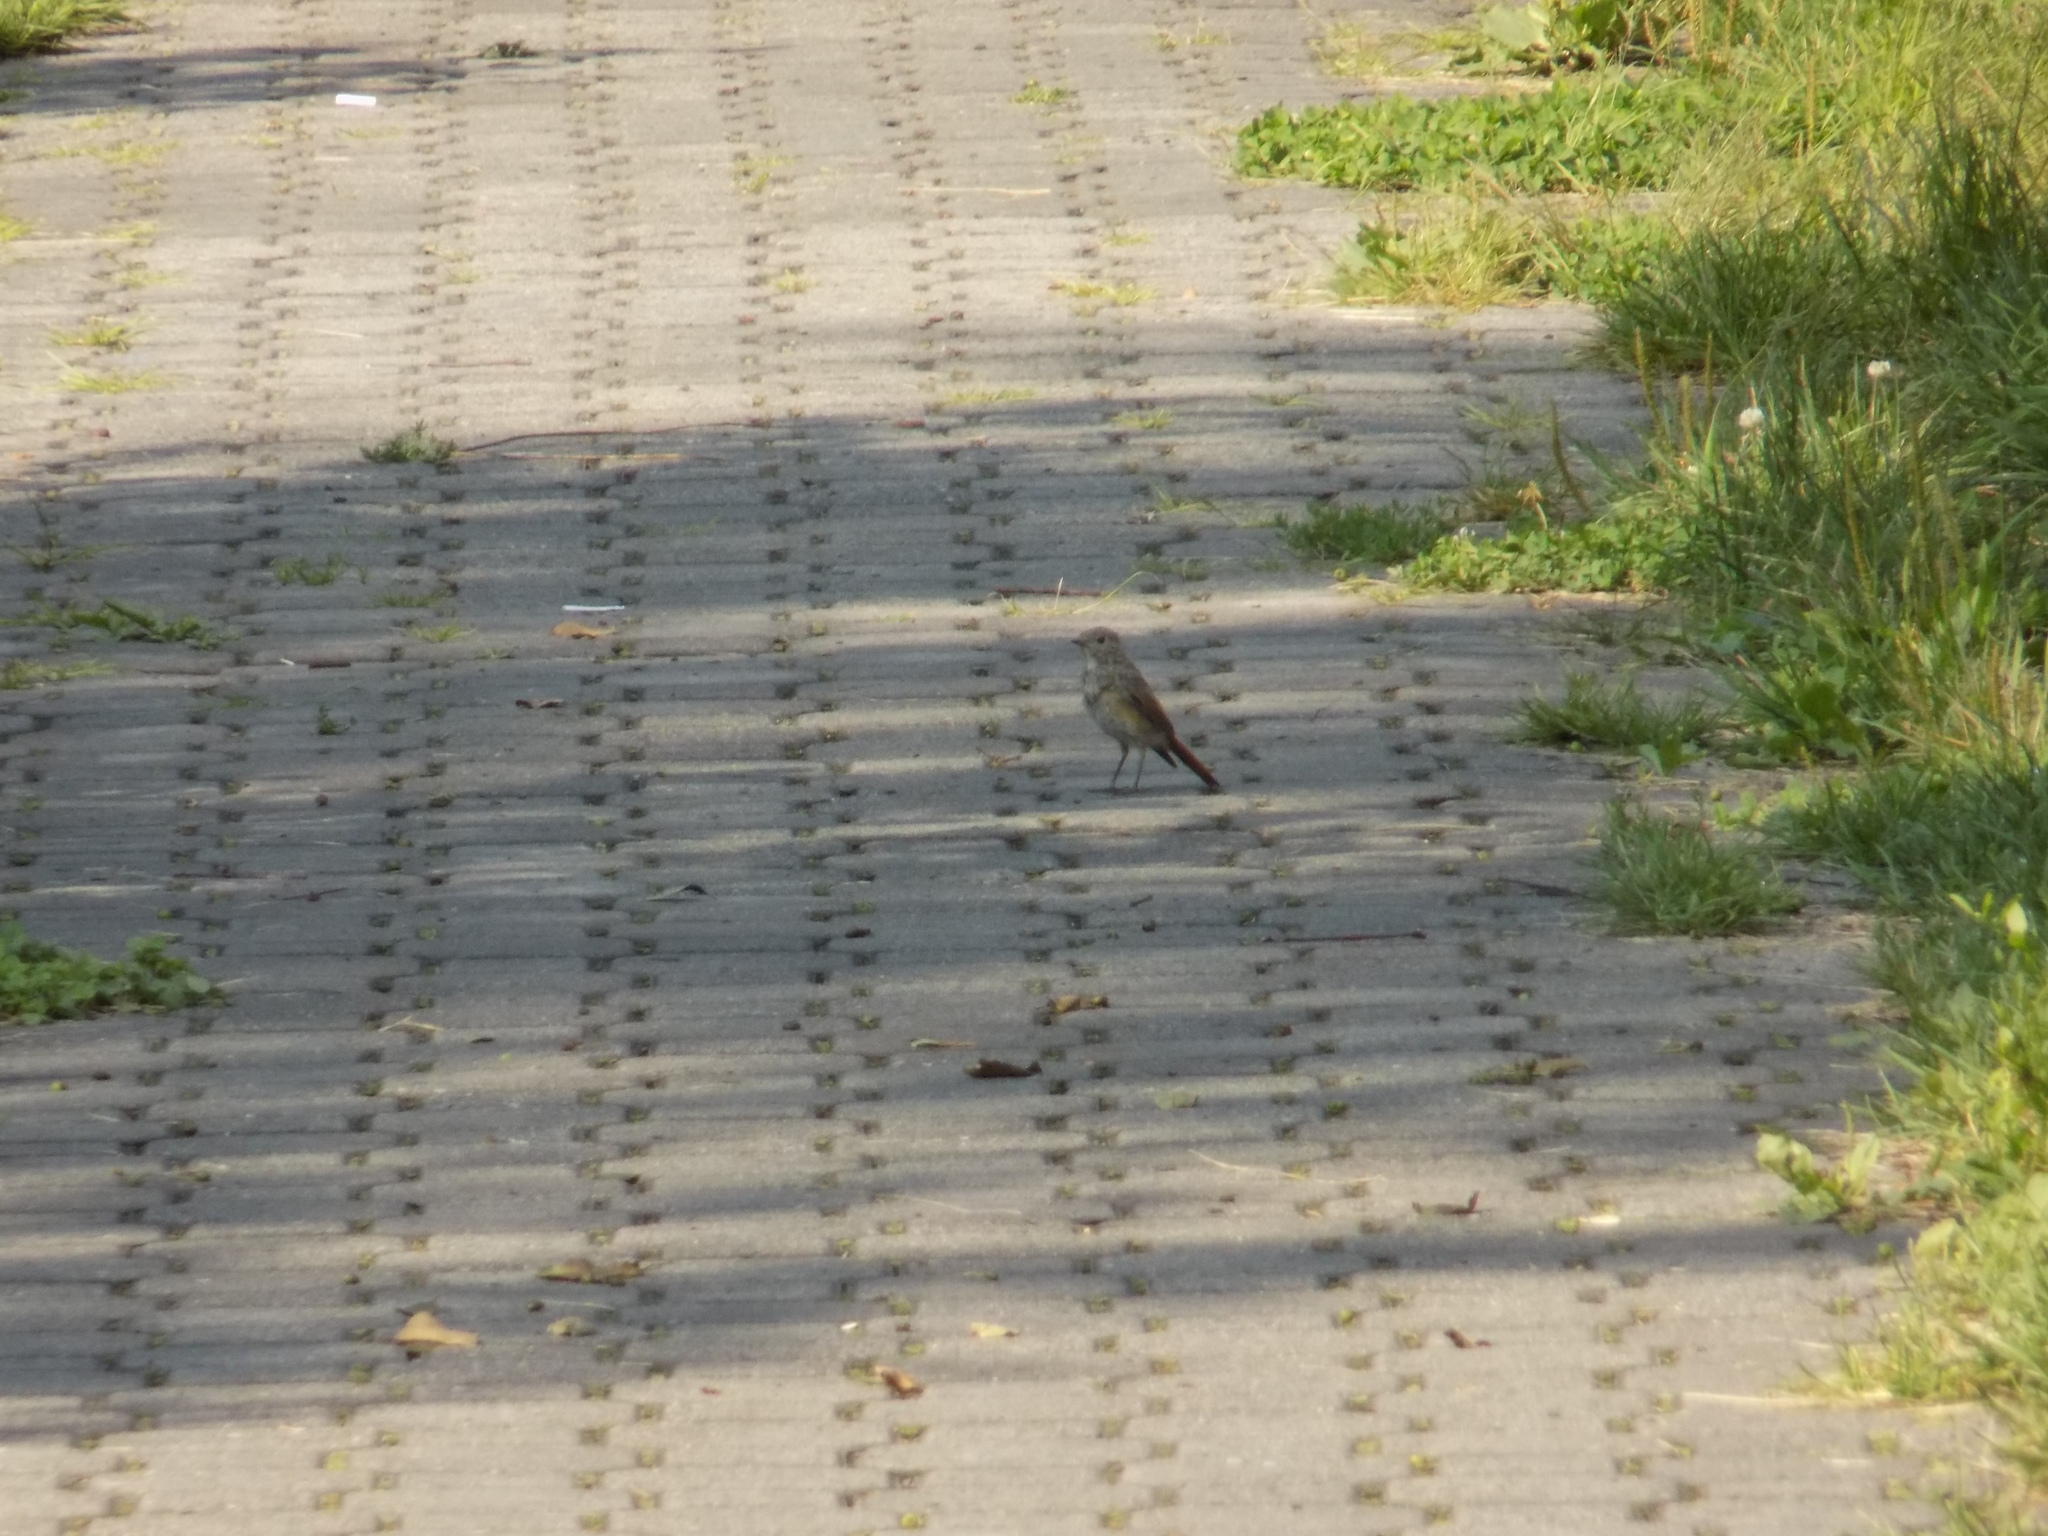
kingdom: Animalia
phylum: Chordata
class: Aves
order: Passeriformes
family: Muscicapidae
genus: Phoenicurus
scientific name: Phoenicurus phoenicurus
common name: Common redstart
